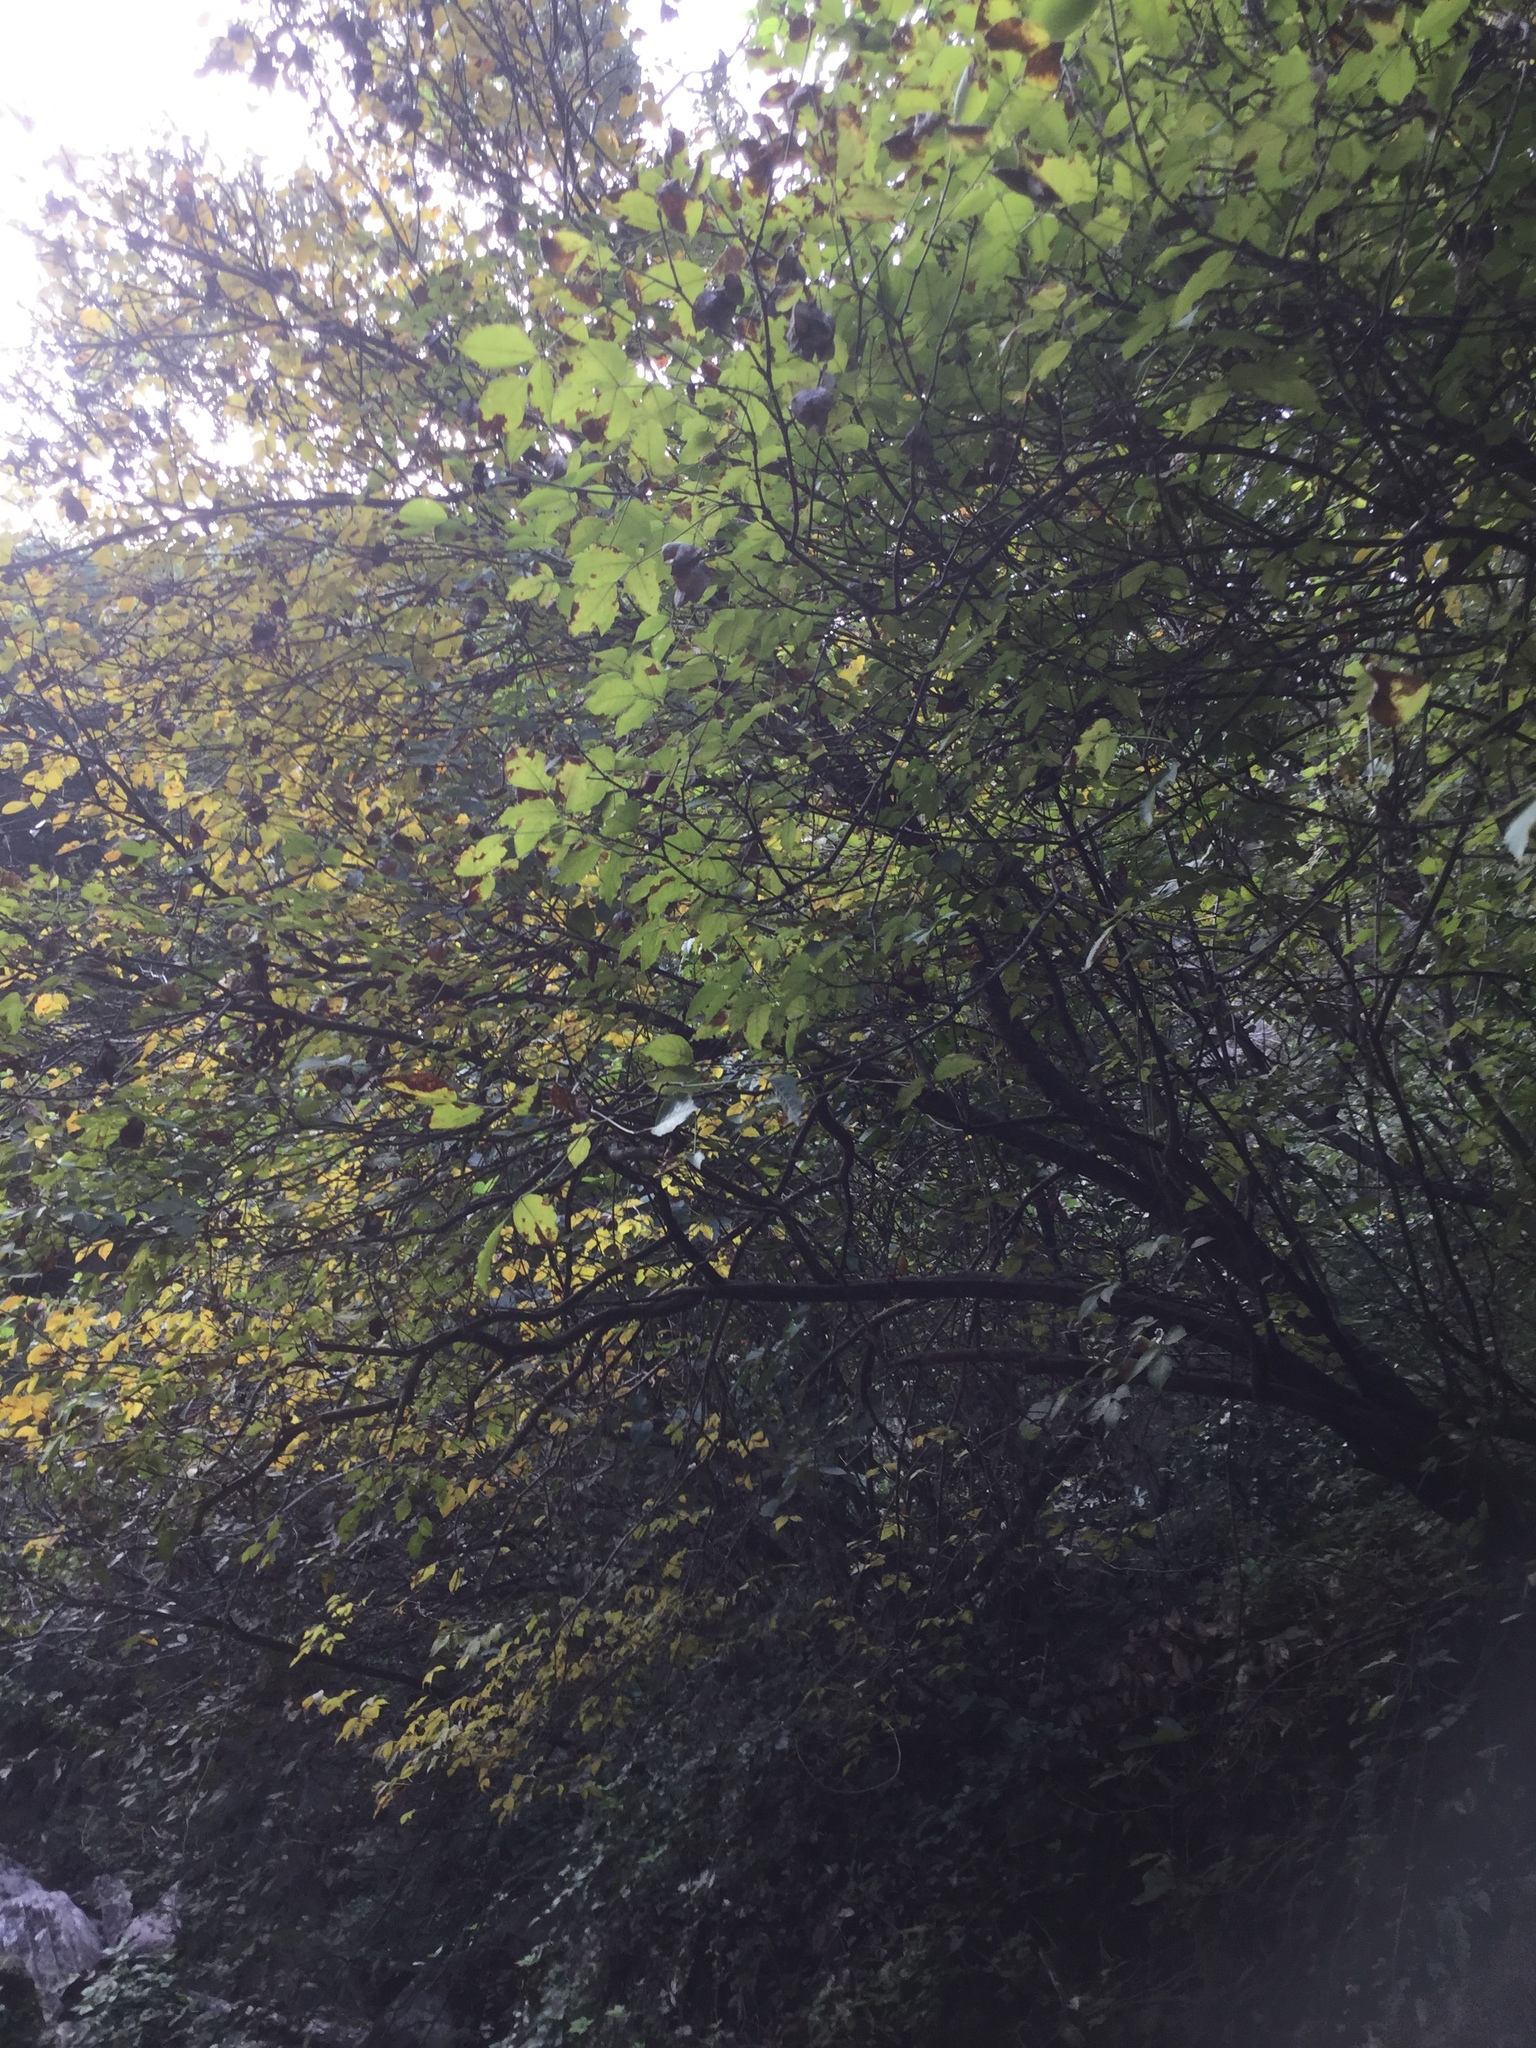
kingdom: Plantae
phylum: Tracheophyta
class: Magnoliopsida
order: Crossosomatales
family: Staphyleaceae
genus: Staphylea
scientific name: Staphylea pringlei
